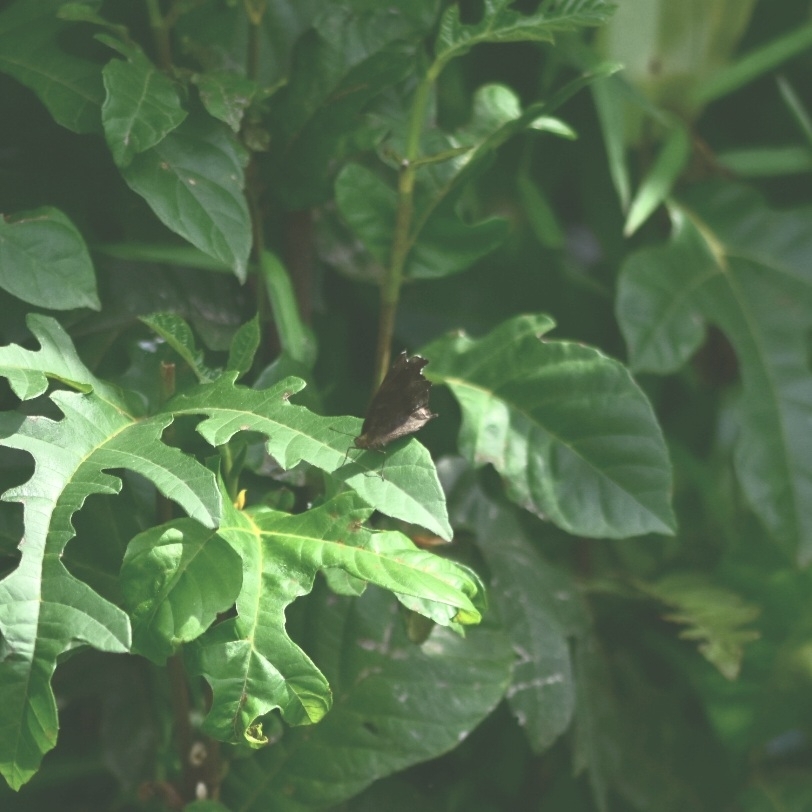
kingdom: Animalia
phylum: Arthropoda
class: Insecta
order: Lepidoptera
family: Nymphalidae
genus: Junonia
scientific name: Junonia iphita
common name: Chocolate pansy
